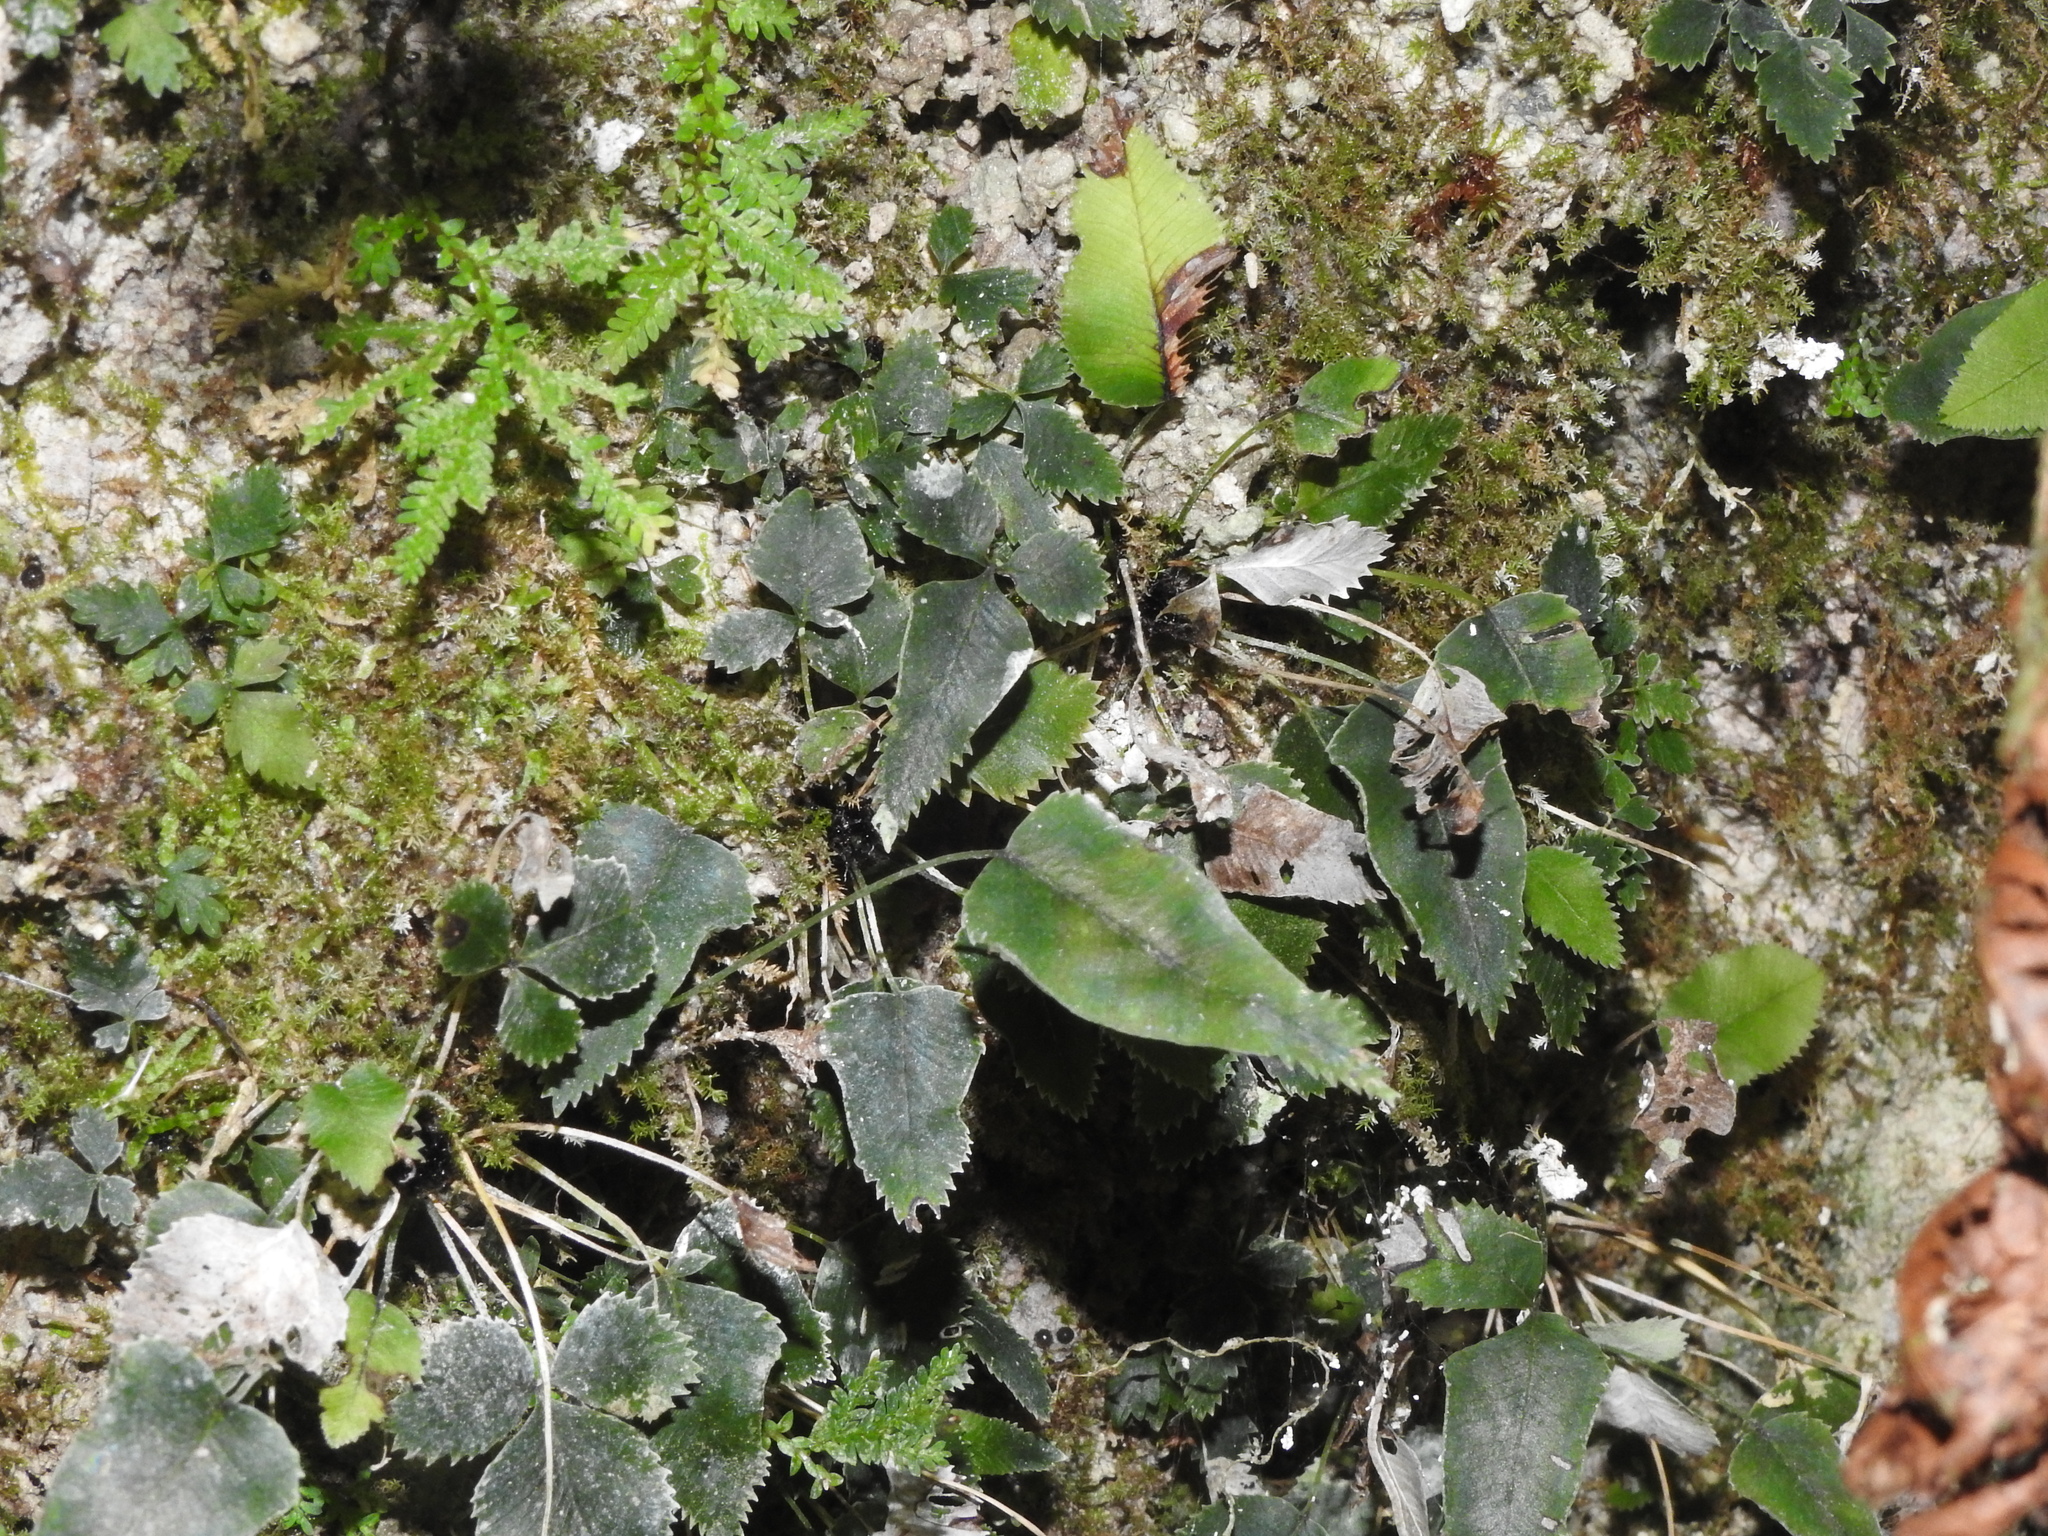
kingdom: Plantae
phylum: Tracheophyta
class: Polypodiopsida
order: Polypodiales
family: Pteridaceae
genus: Pteris
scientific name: Pteris deltodon
